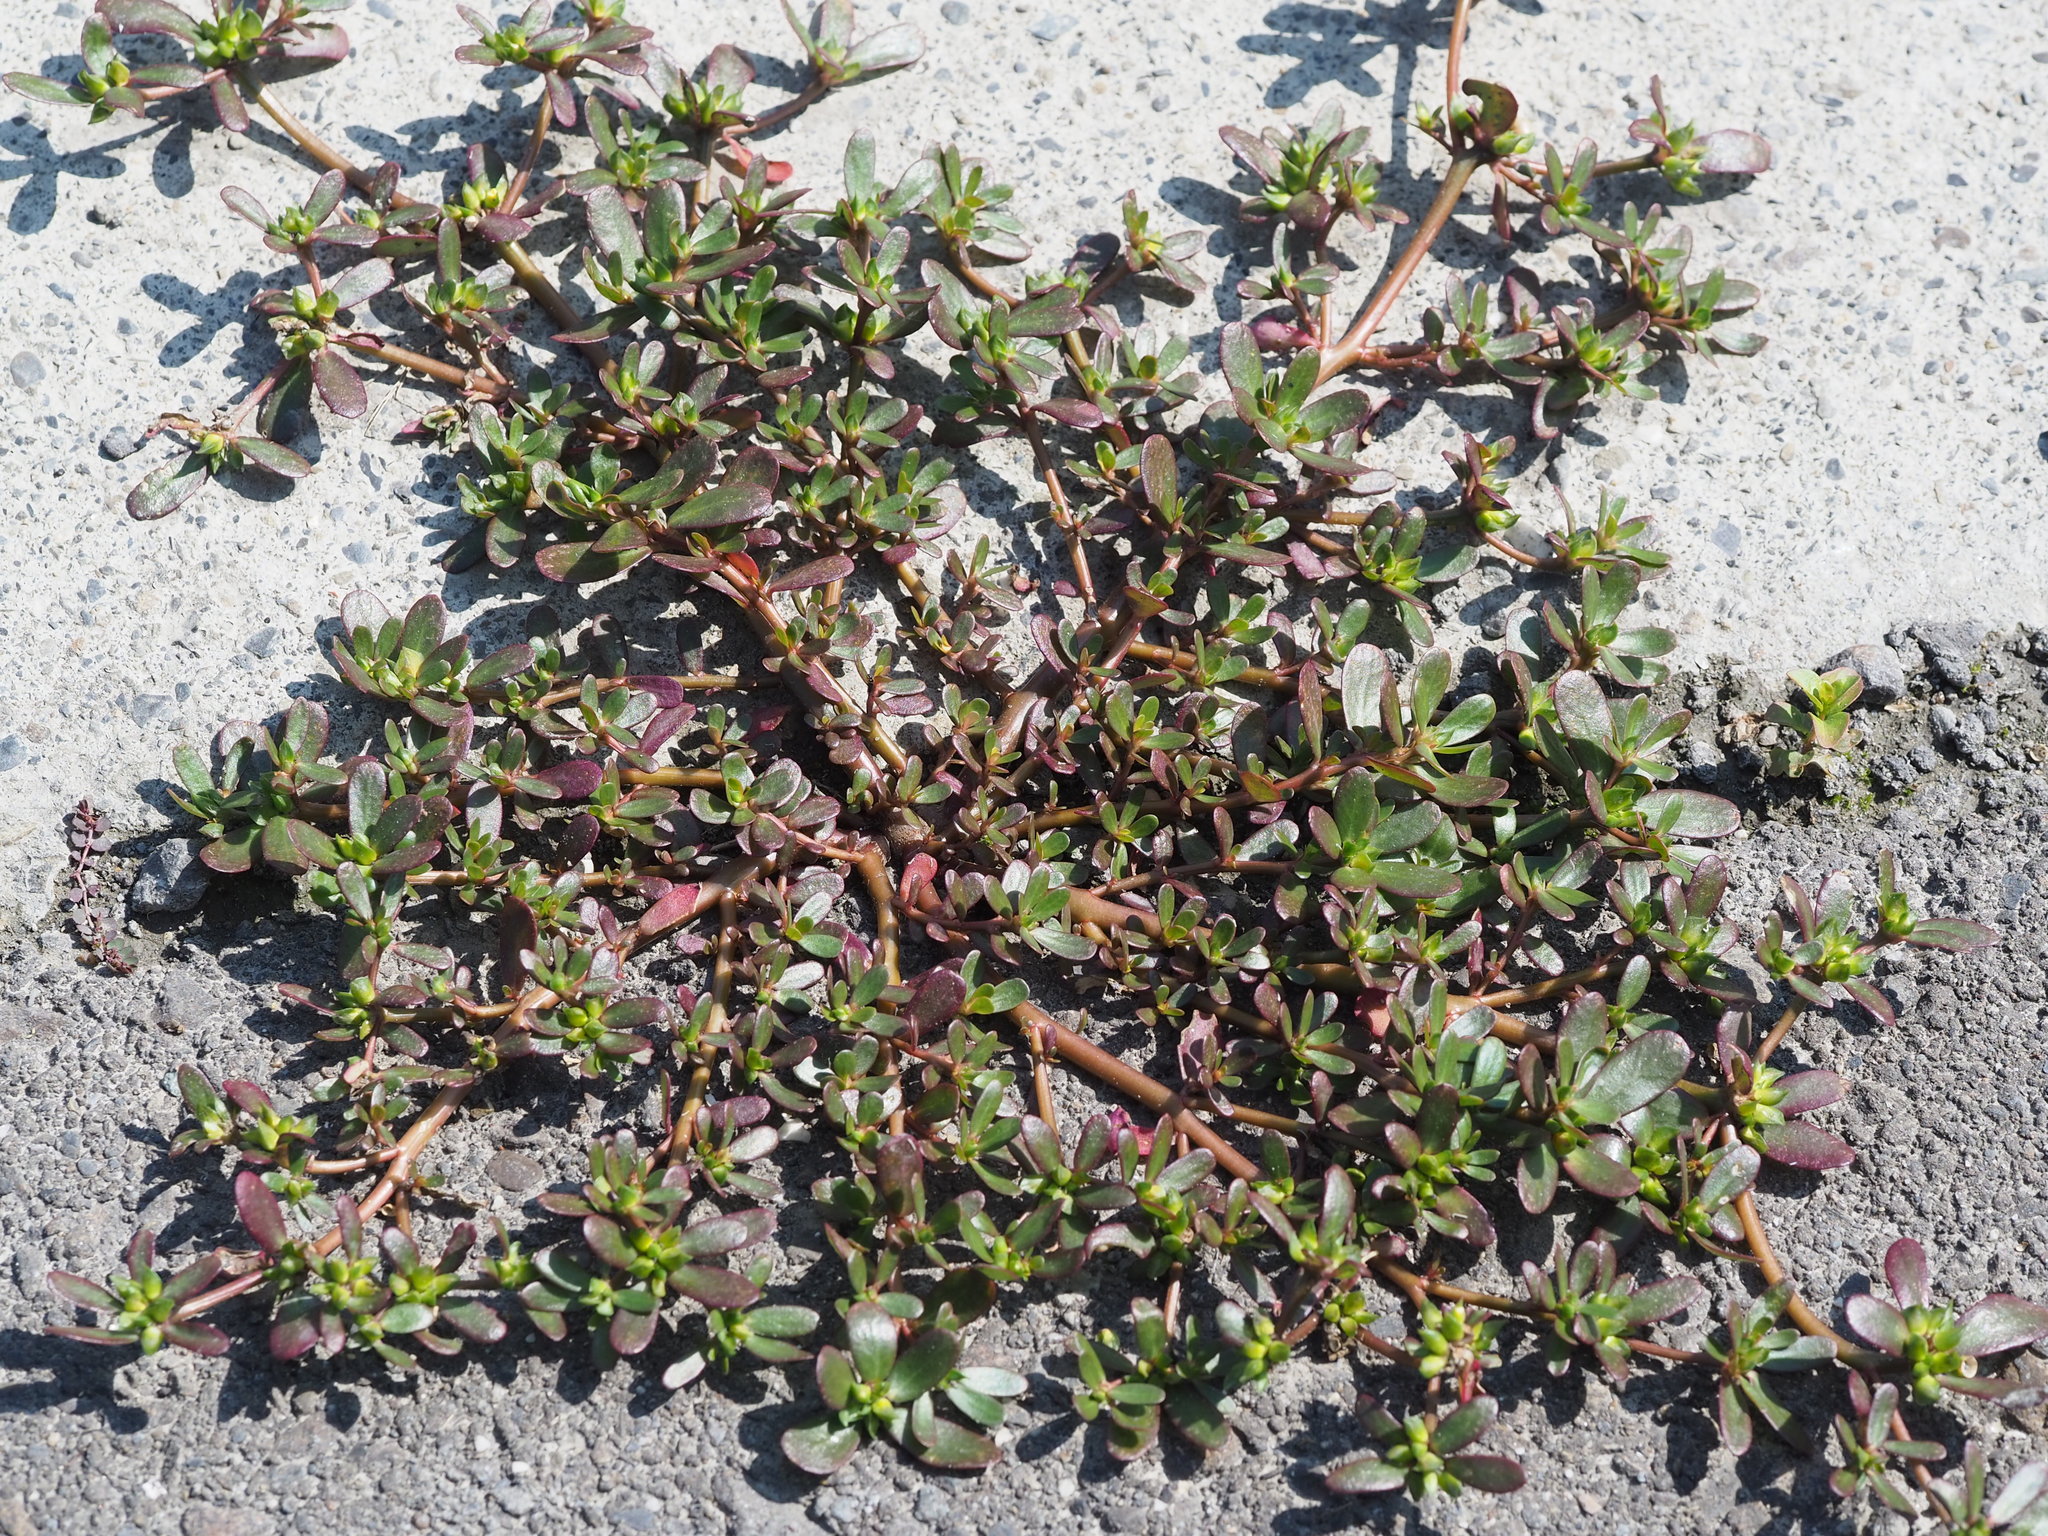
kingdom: Plantae
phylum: Tracheophyta
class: Magnoliopsida
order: Caryophyllales
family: Portulacaceae
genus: Portulaca
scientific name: Portulaca oleracea
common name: Common purslane
